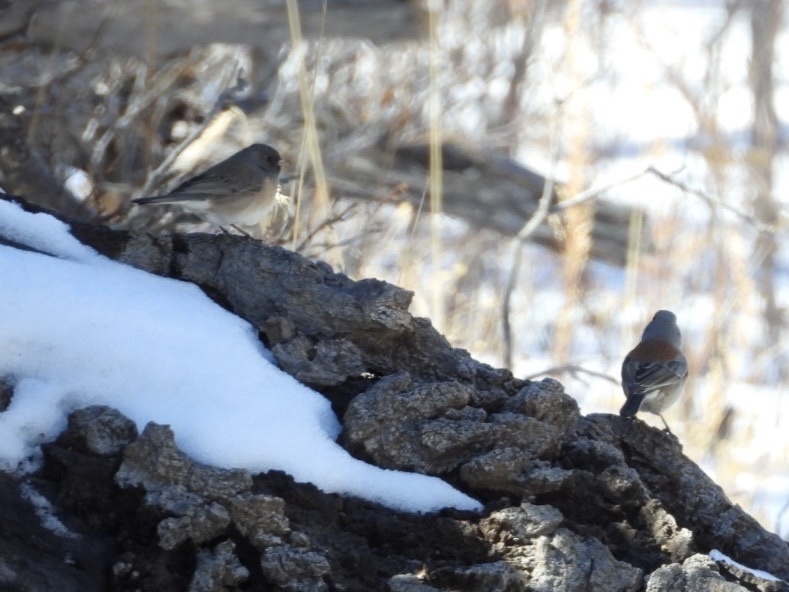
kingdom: Animalia
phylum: Chordata
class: Aves
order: Passeriformes
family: Passerellidae
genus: Junco
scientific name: Junco hyemalis
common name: Dark-eyed junco
